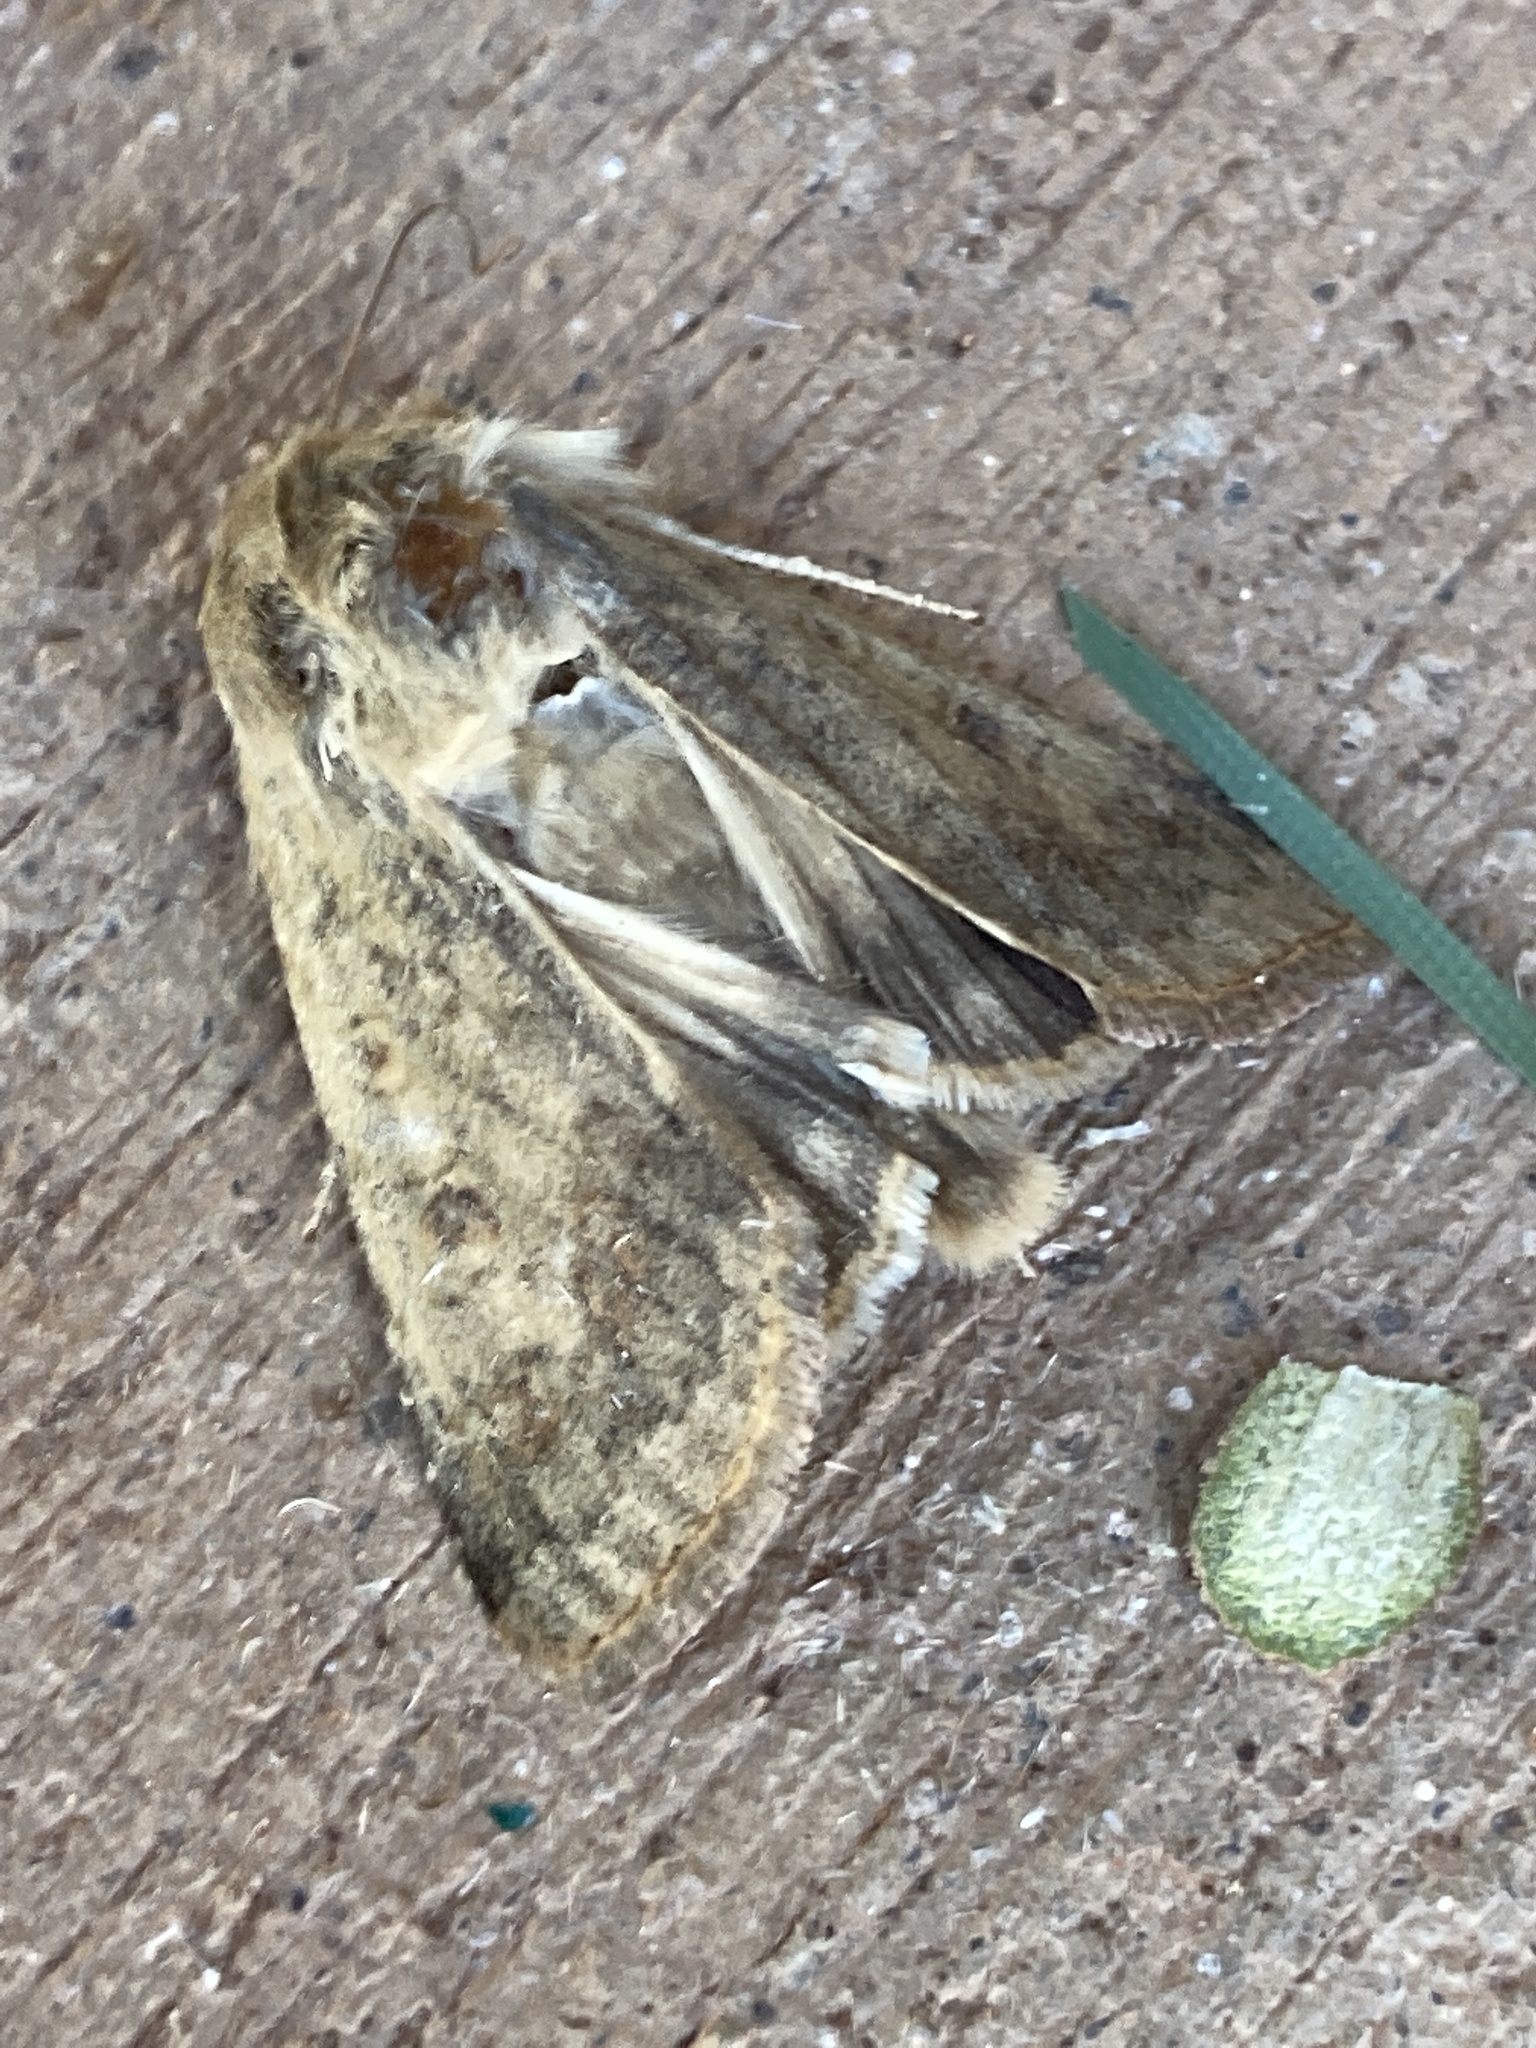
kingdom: Animalia
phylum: Arthropoda
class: Insecta
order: Lepidoptera
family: Noctuidae
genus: Helicoverpa
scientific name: Helicoverpa zea
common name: Bollworm
